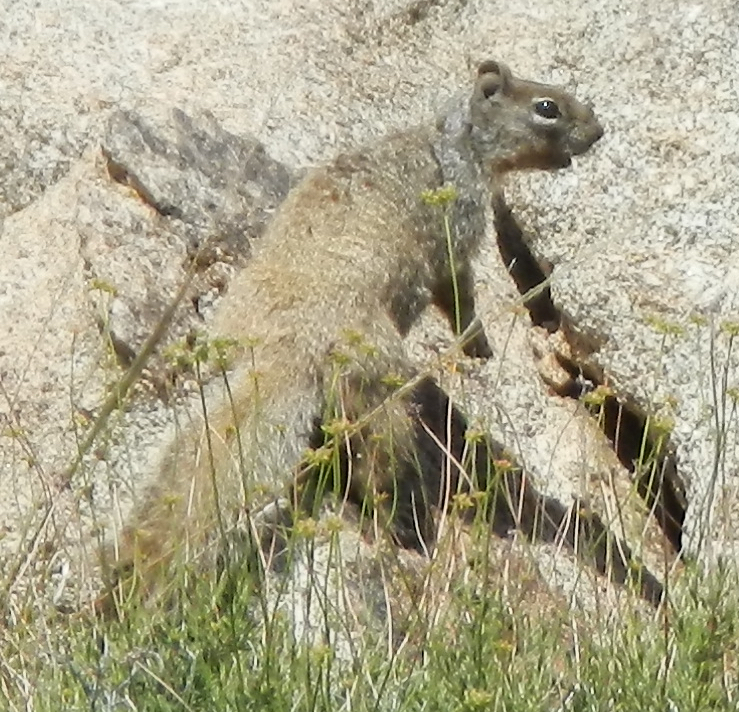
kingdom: Animalia
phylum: Chordata
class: Mammalia
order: Rodentia
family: Sciuridae
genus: Otospermophilus
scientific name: Otospermophilus variegatus
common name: Rock squirrel
